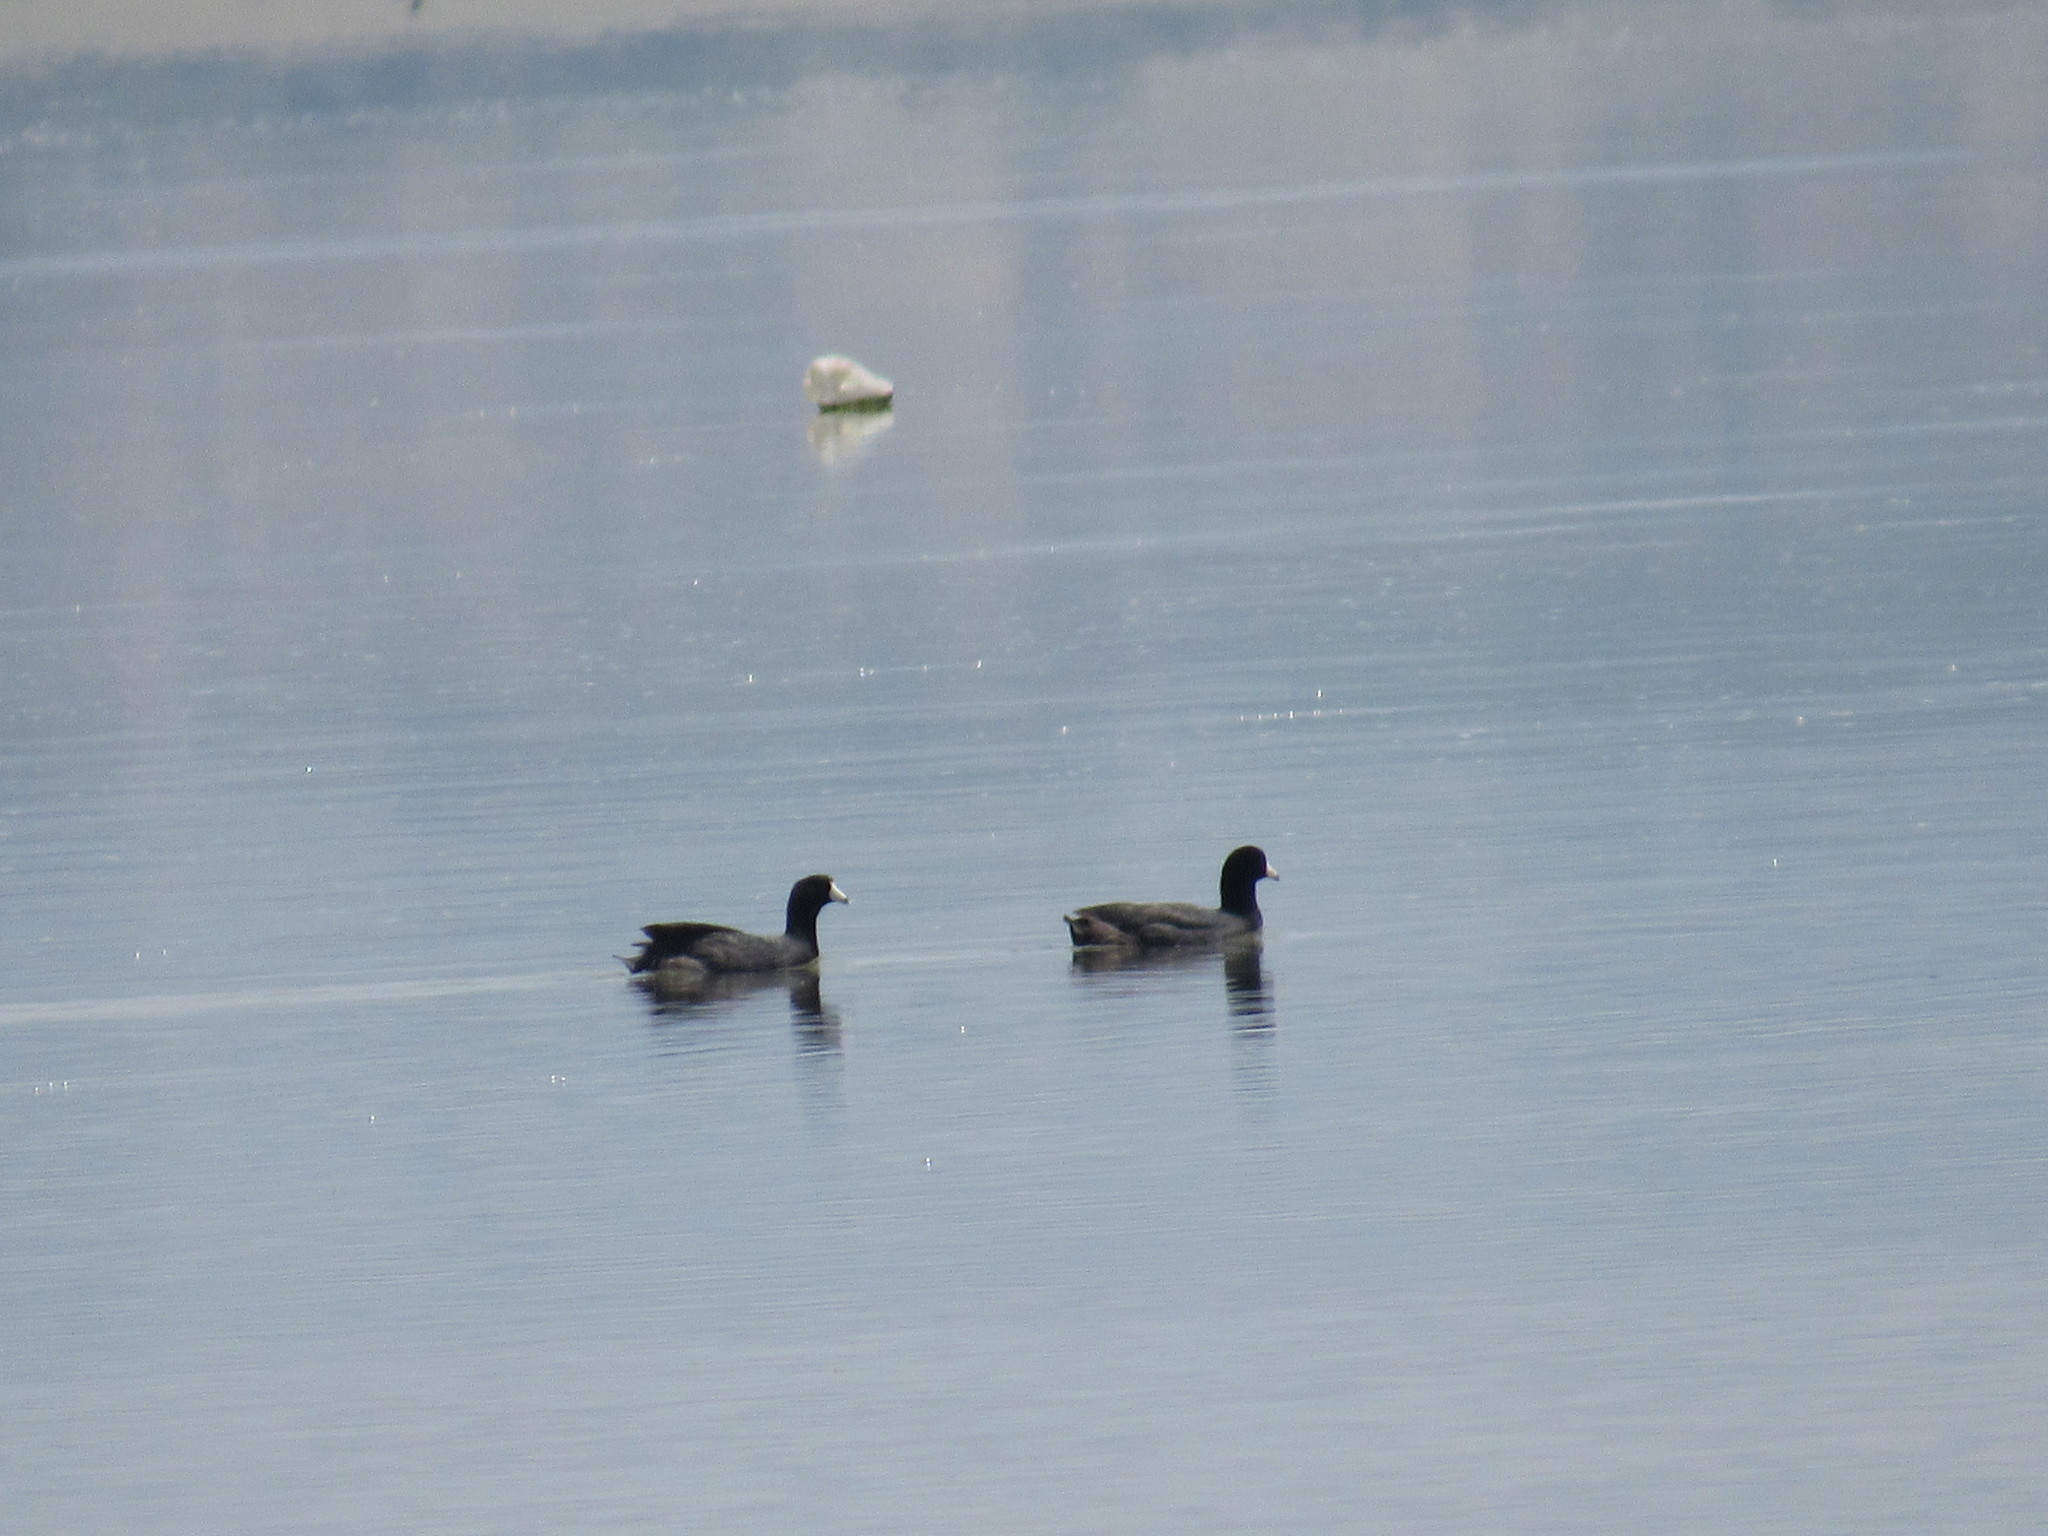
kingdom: Animalia
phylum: Chordata
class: Aves
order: Gruiformes
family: Rallidae
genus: Fulica
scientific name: Fulica americana
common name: American coot
